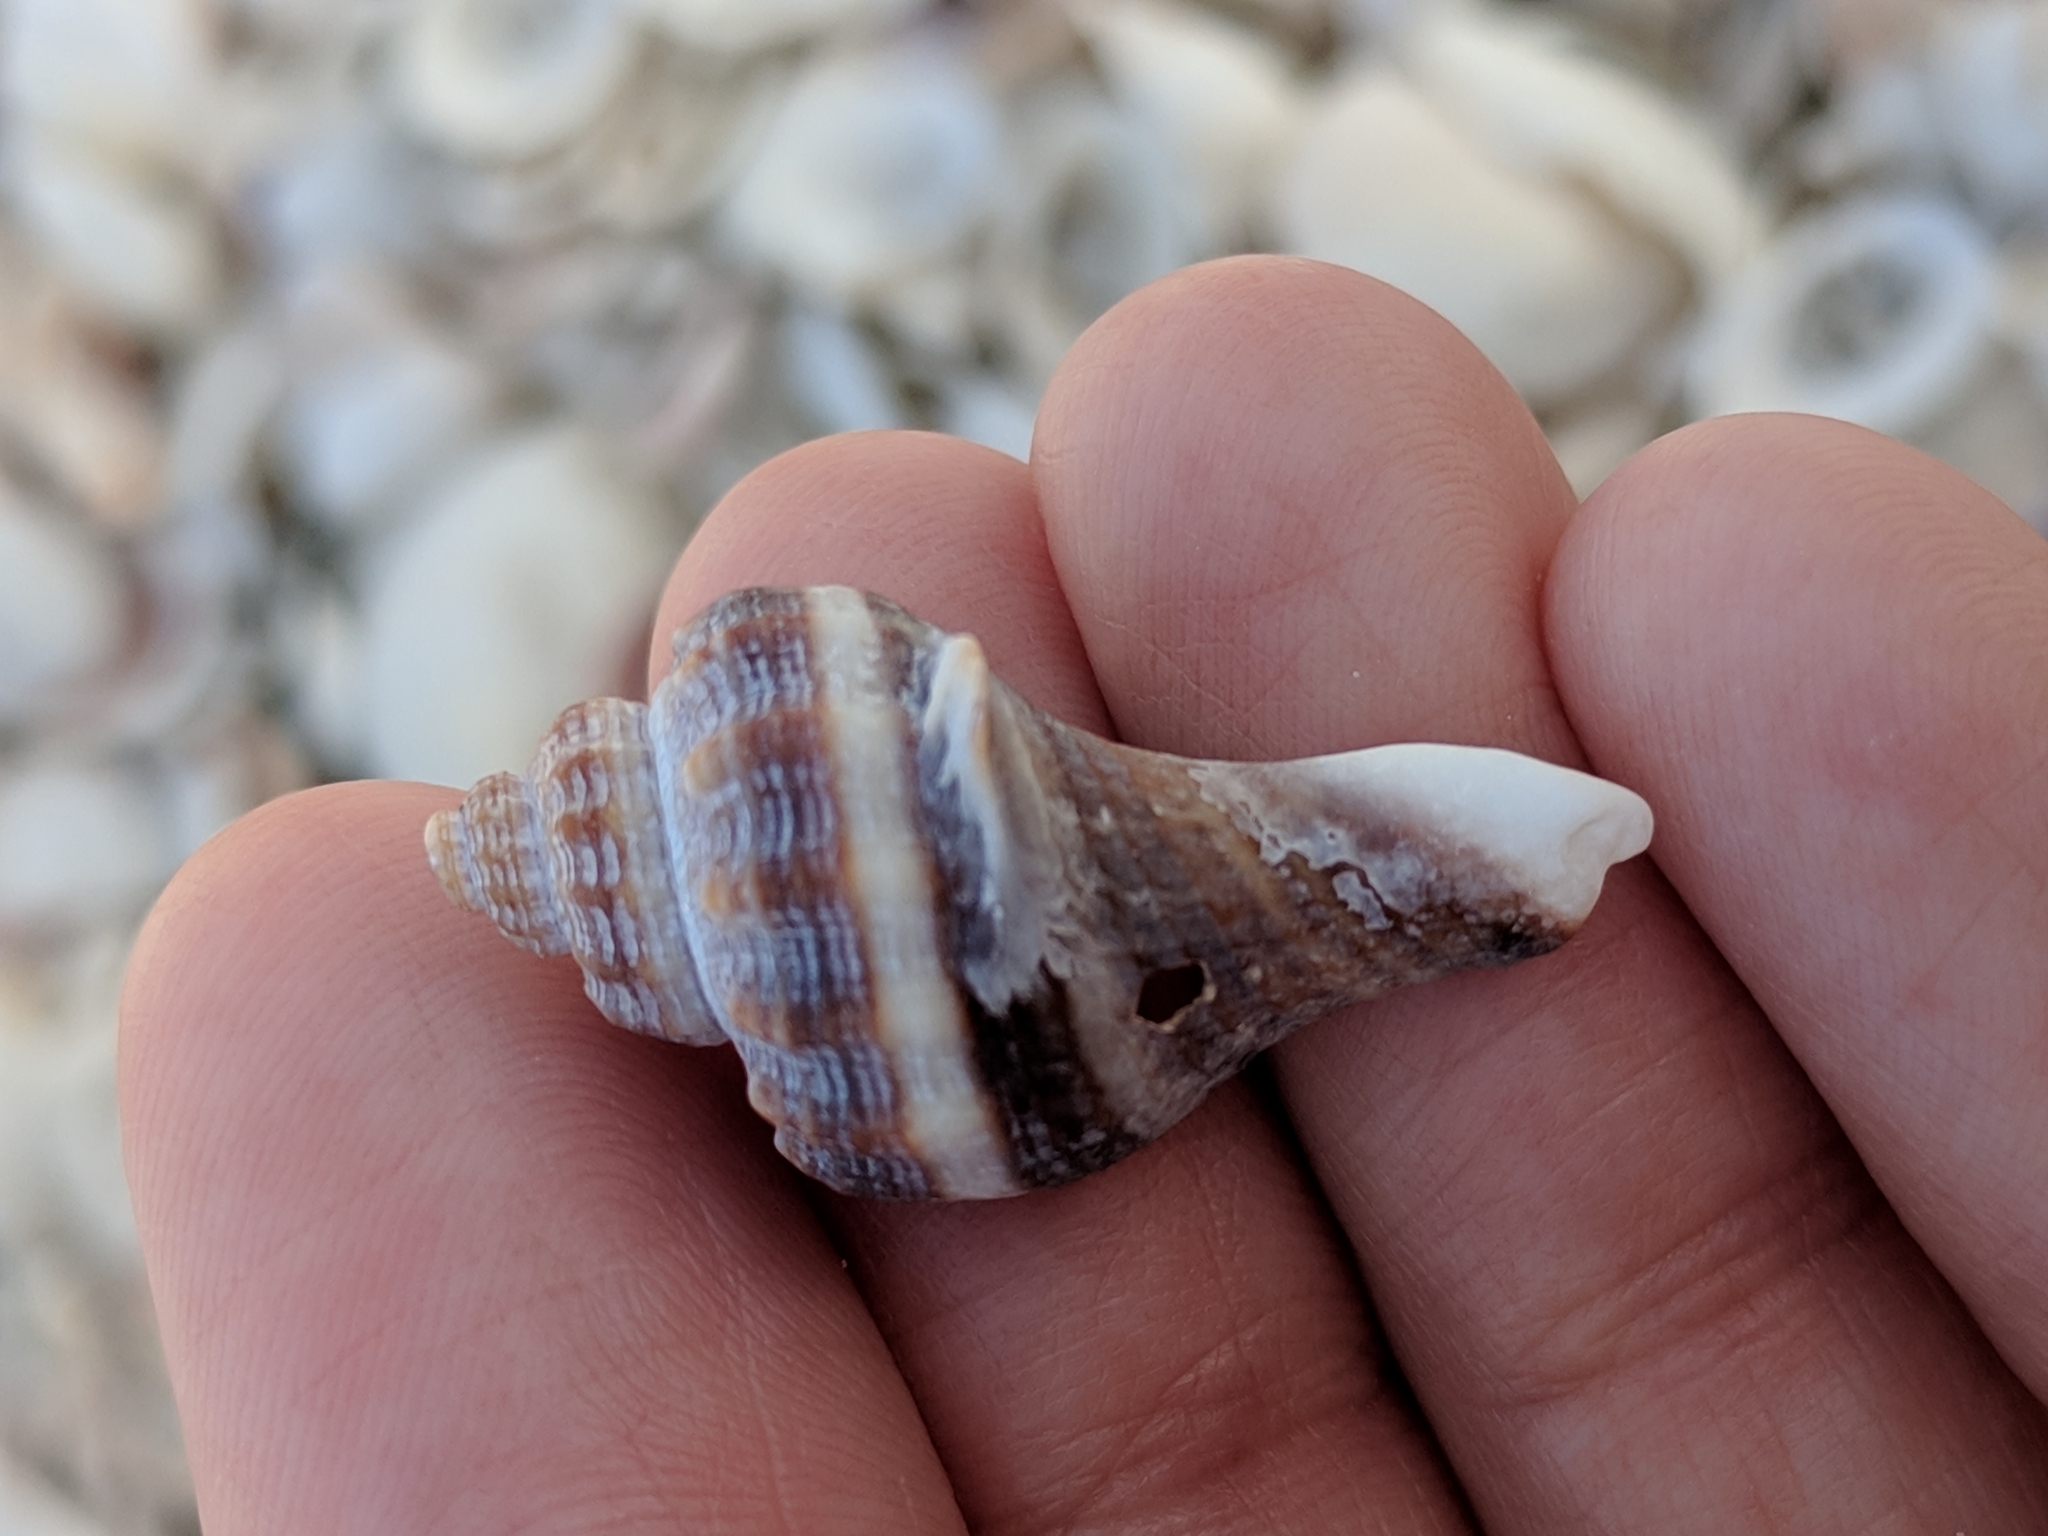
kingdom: Animalia
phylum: Mollusca
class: Gastropoda
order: Neogastropoda
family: Melongenidae
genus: Melongena
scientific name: Melongena corona
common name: American crown conch
